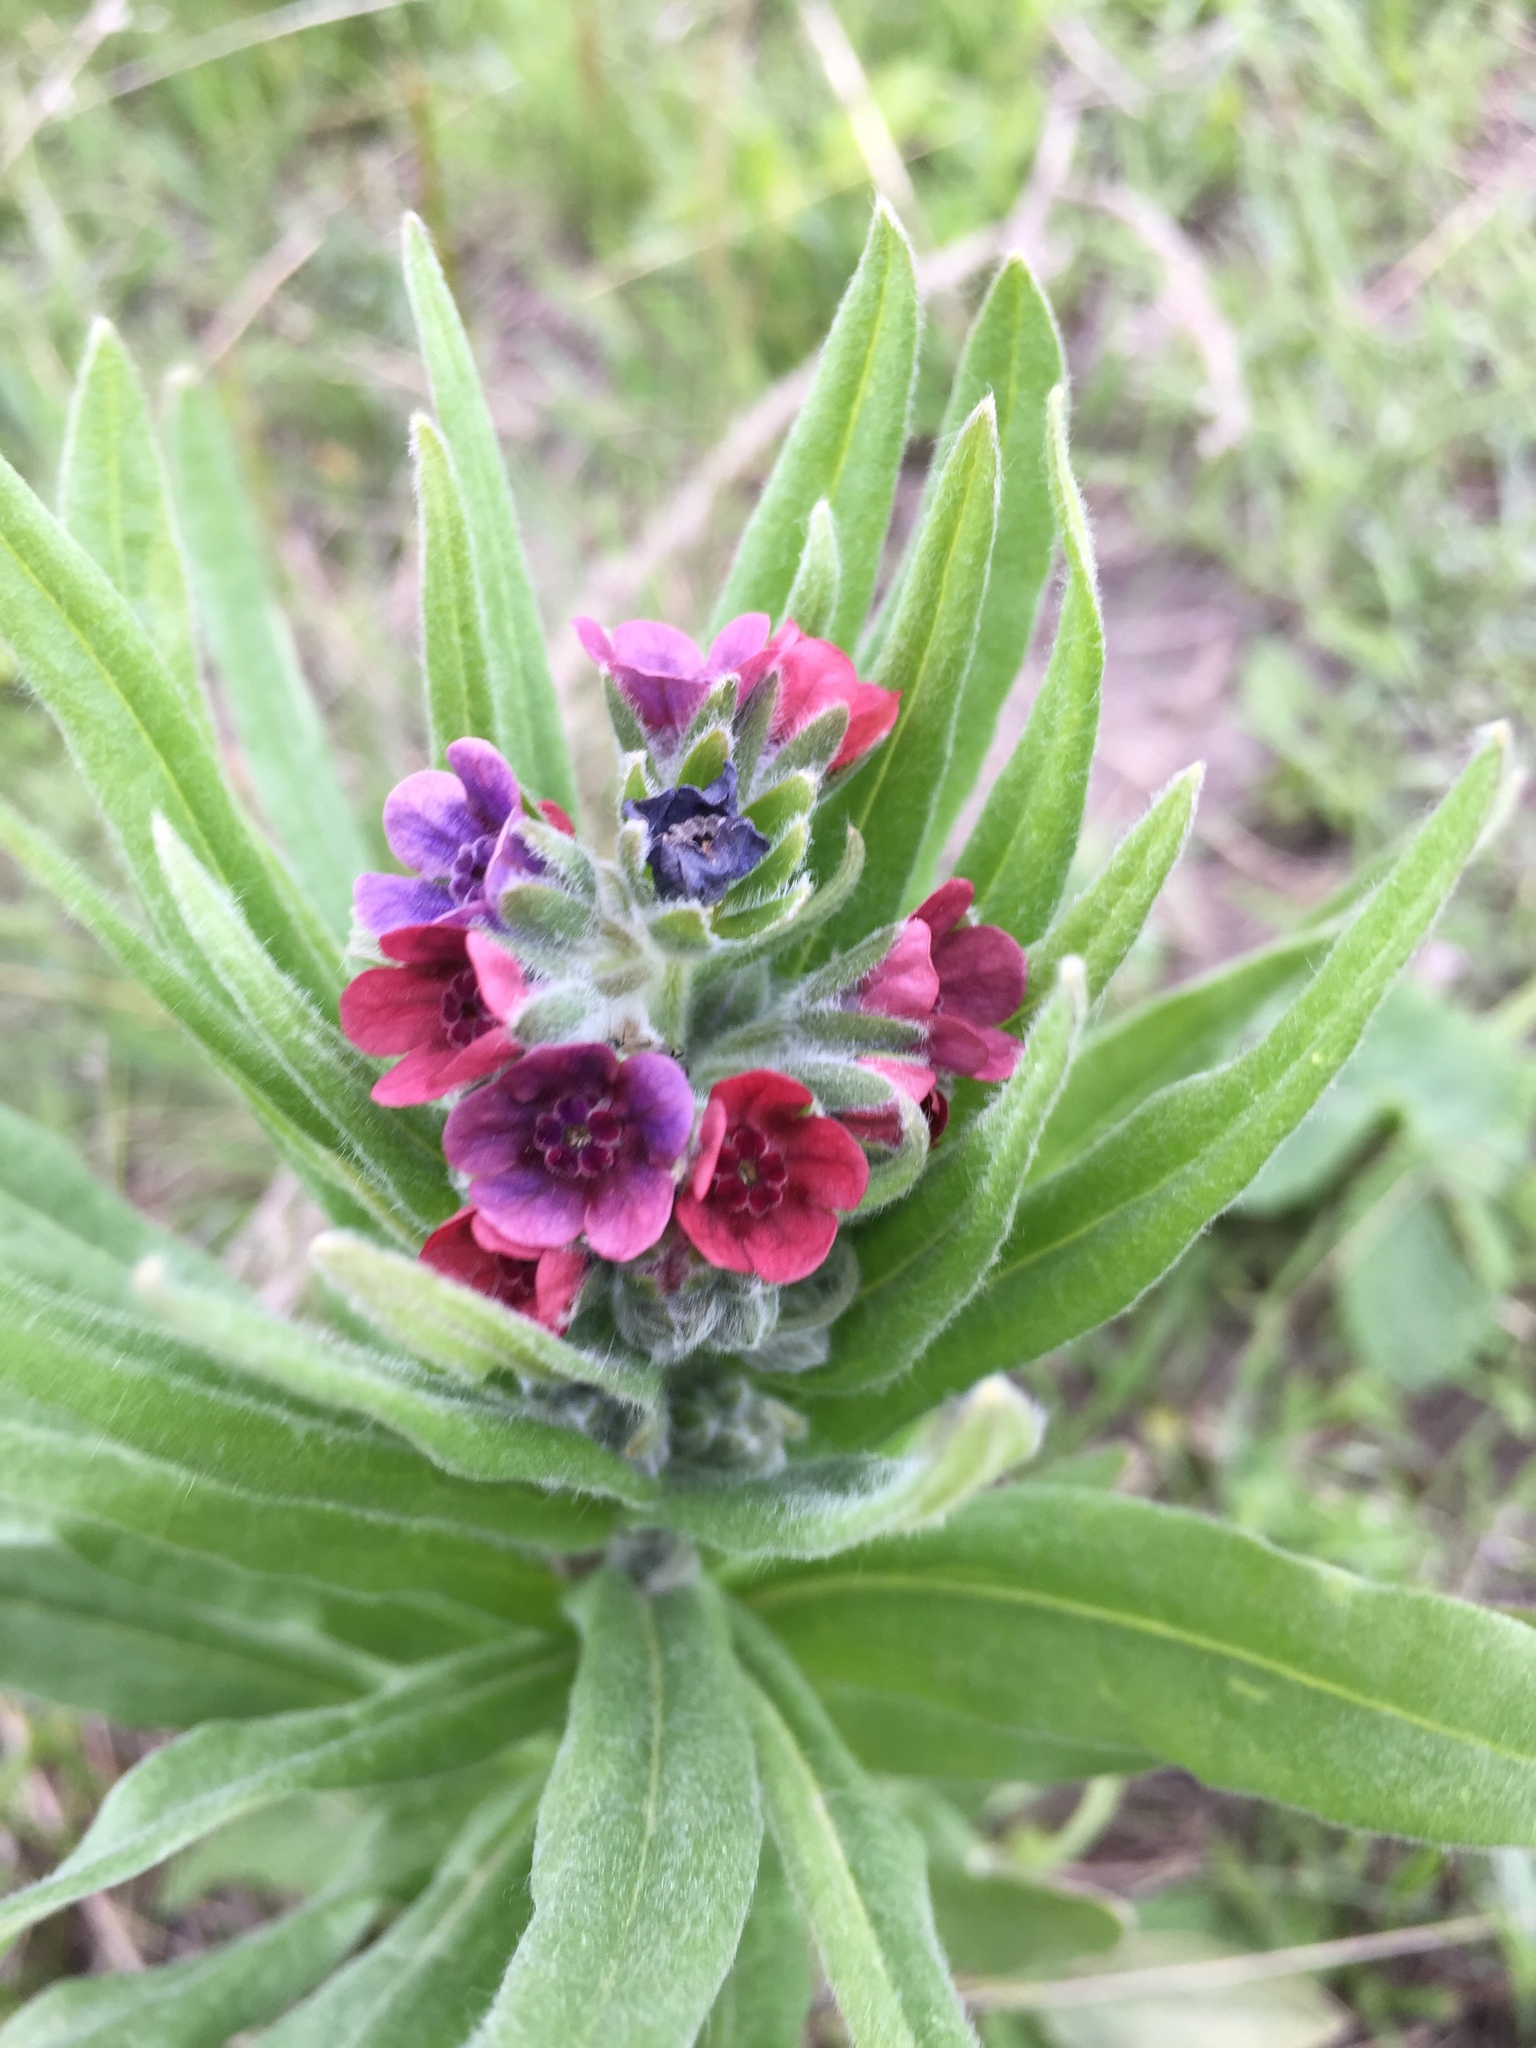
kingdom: Plantae
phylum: Tracheophyta
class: Magnoliopsida
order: Boraginales
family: Boraginaceae
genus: Cynoglossum
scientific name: Cynoglossum officinale
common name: Hound's-tongue
